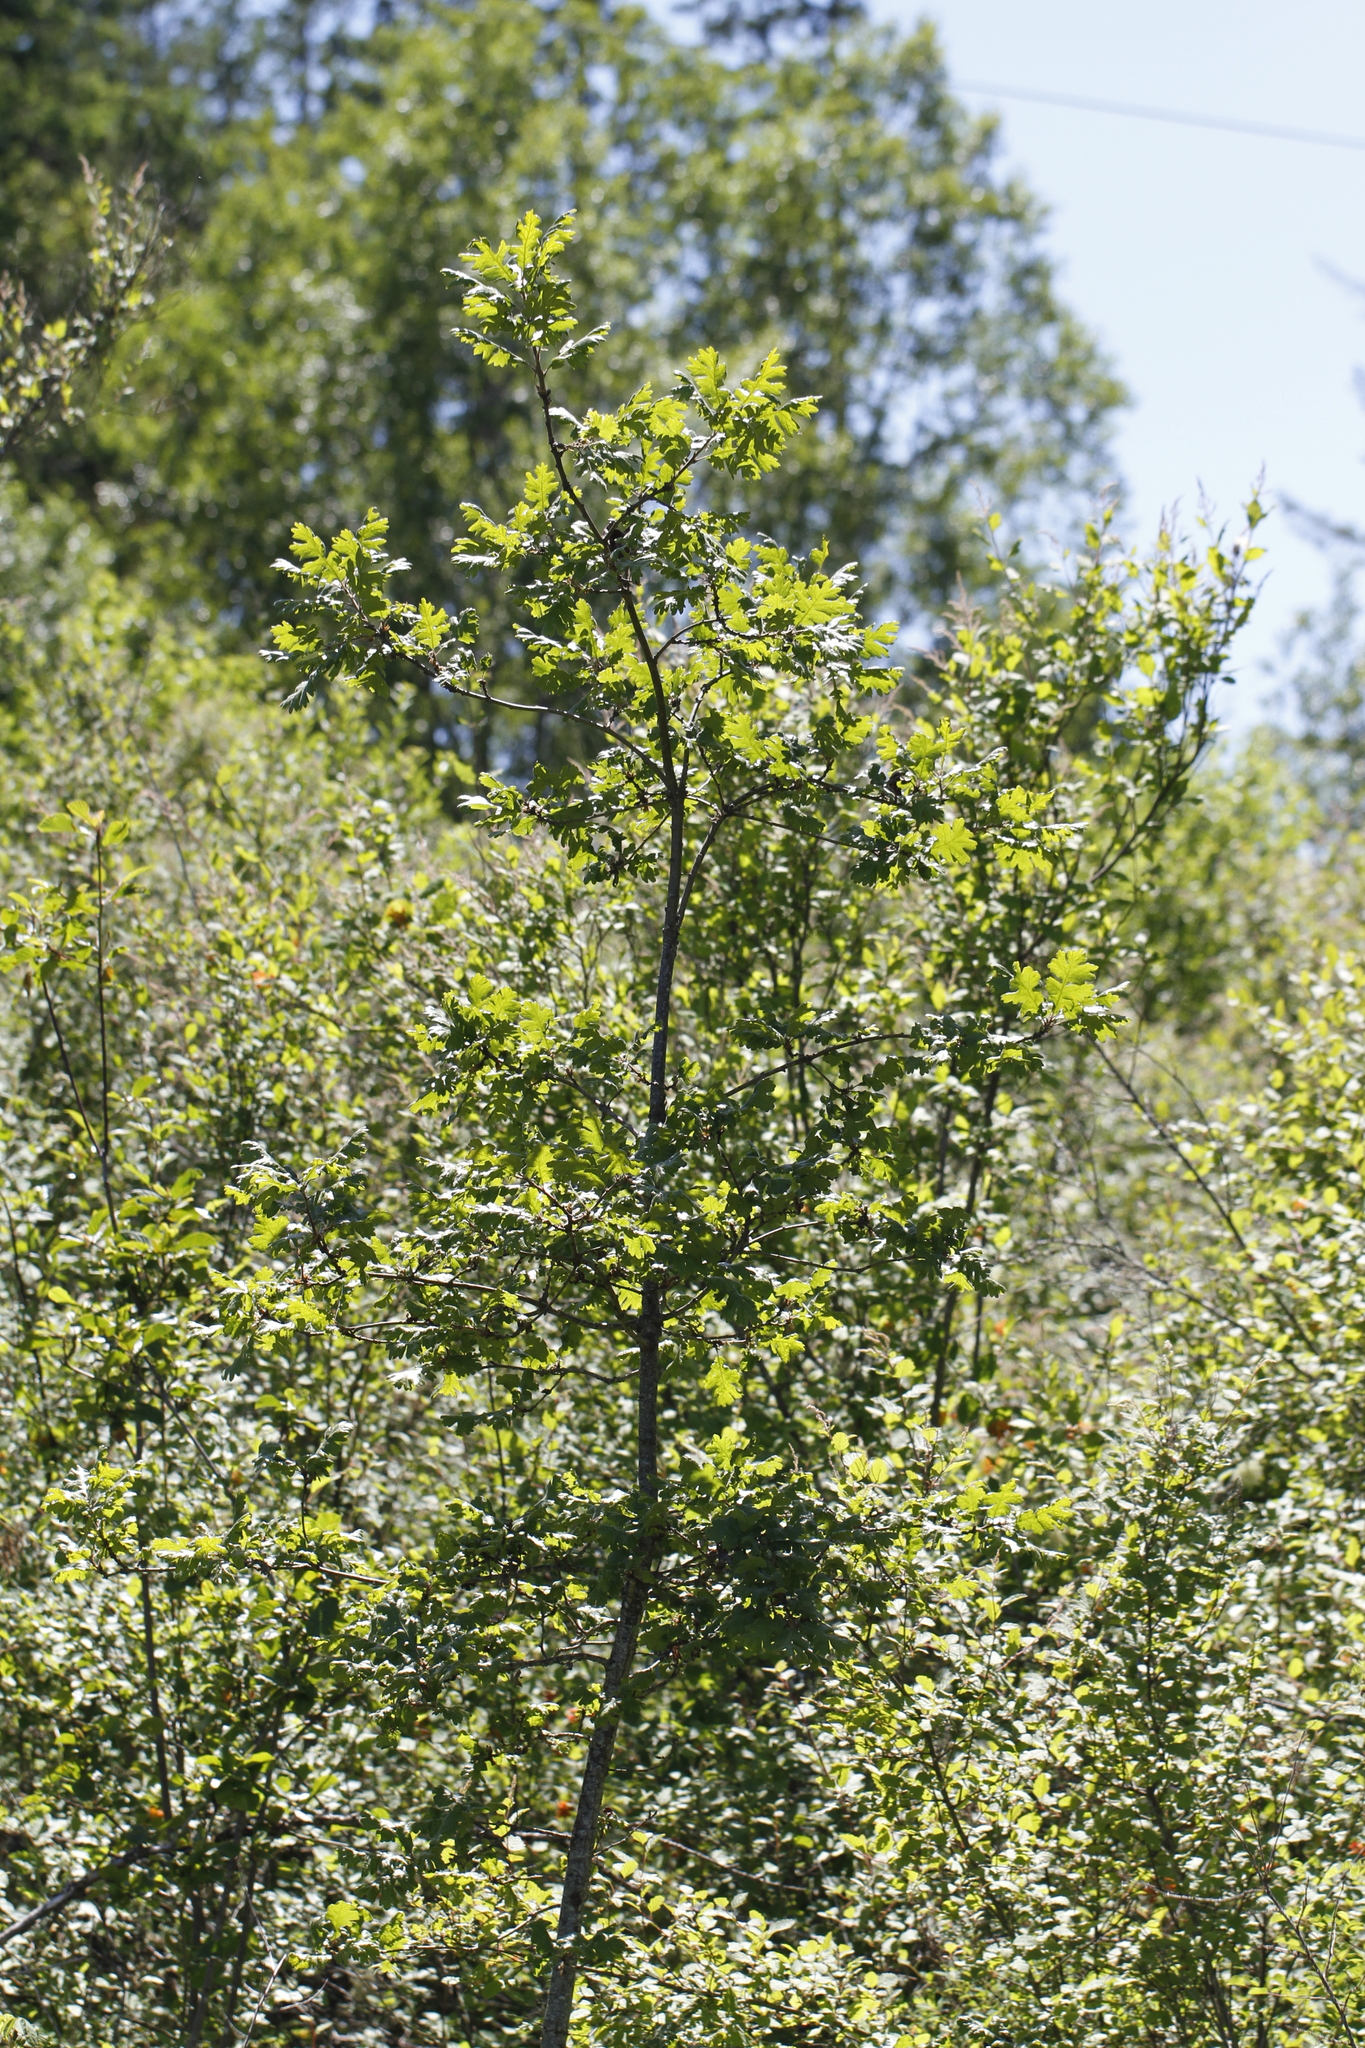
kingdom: Plantae
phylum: Tracheophyta
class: Magnoliopsida
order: Fagales
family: Fagaceae
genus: Quercus
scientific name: Quercus garryana
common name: Garry oak
